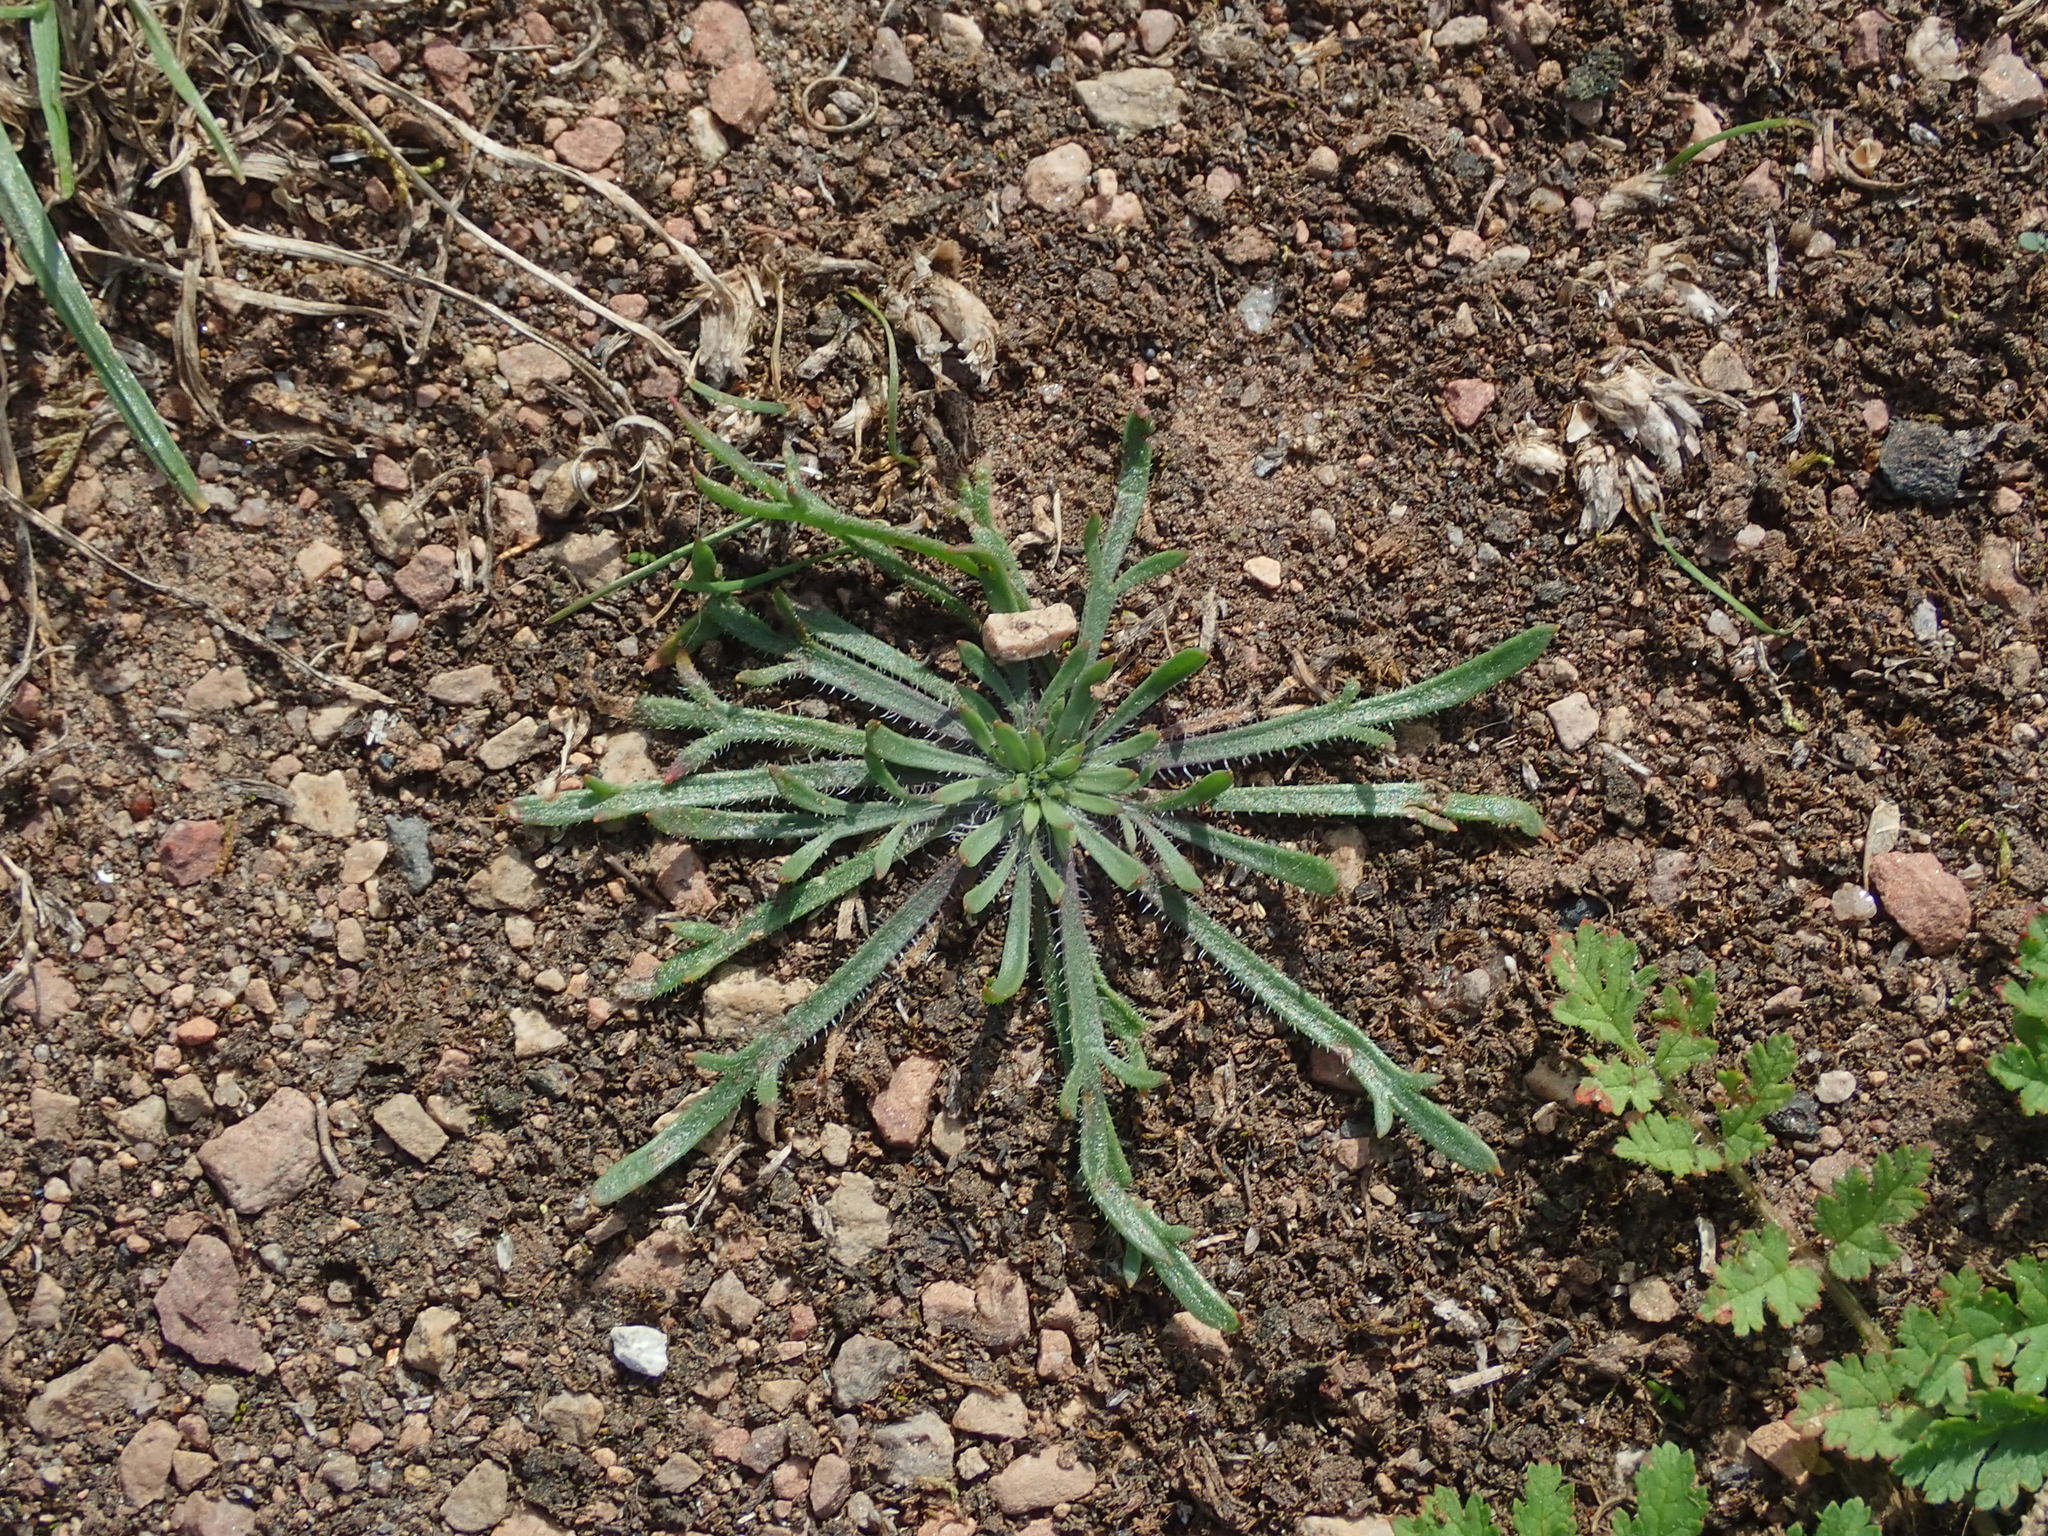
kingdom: Plantae
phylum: Tracheophyta
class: Magnoliopsida
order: Lamiales
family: Plantaginaceae
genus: Plantago
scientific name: Plantago coronopus
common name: Buck's-horn plantain
